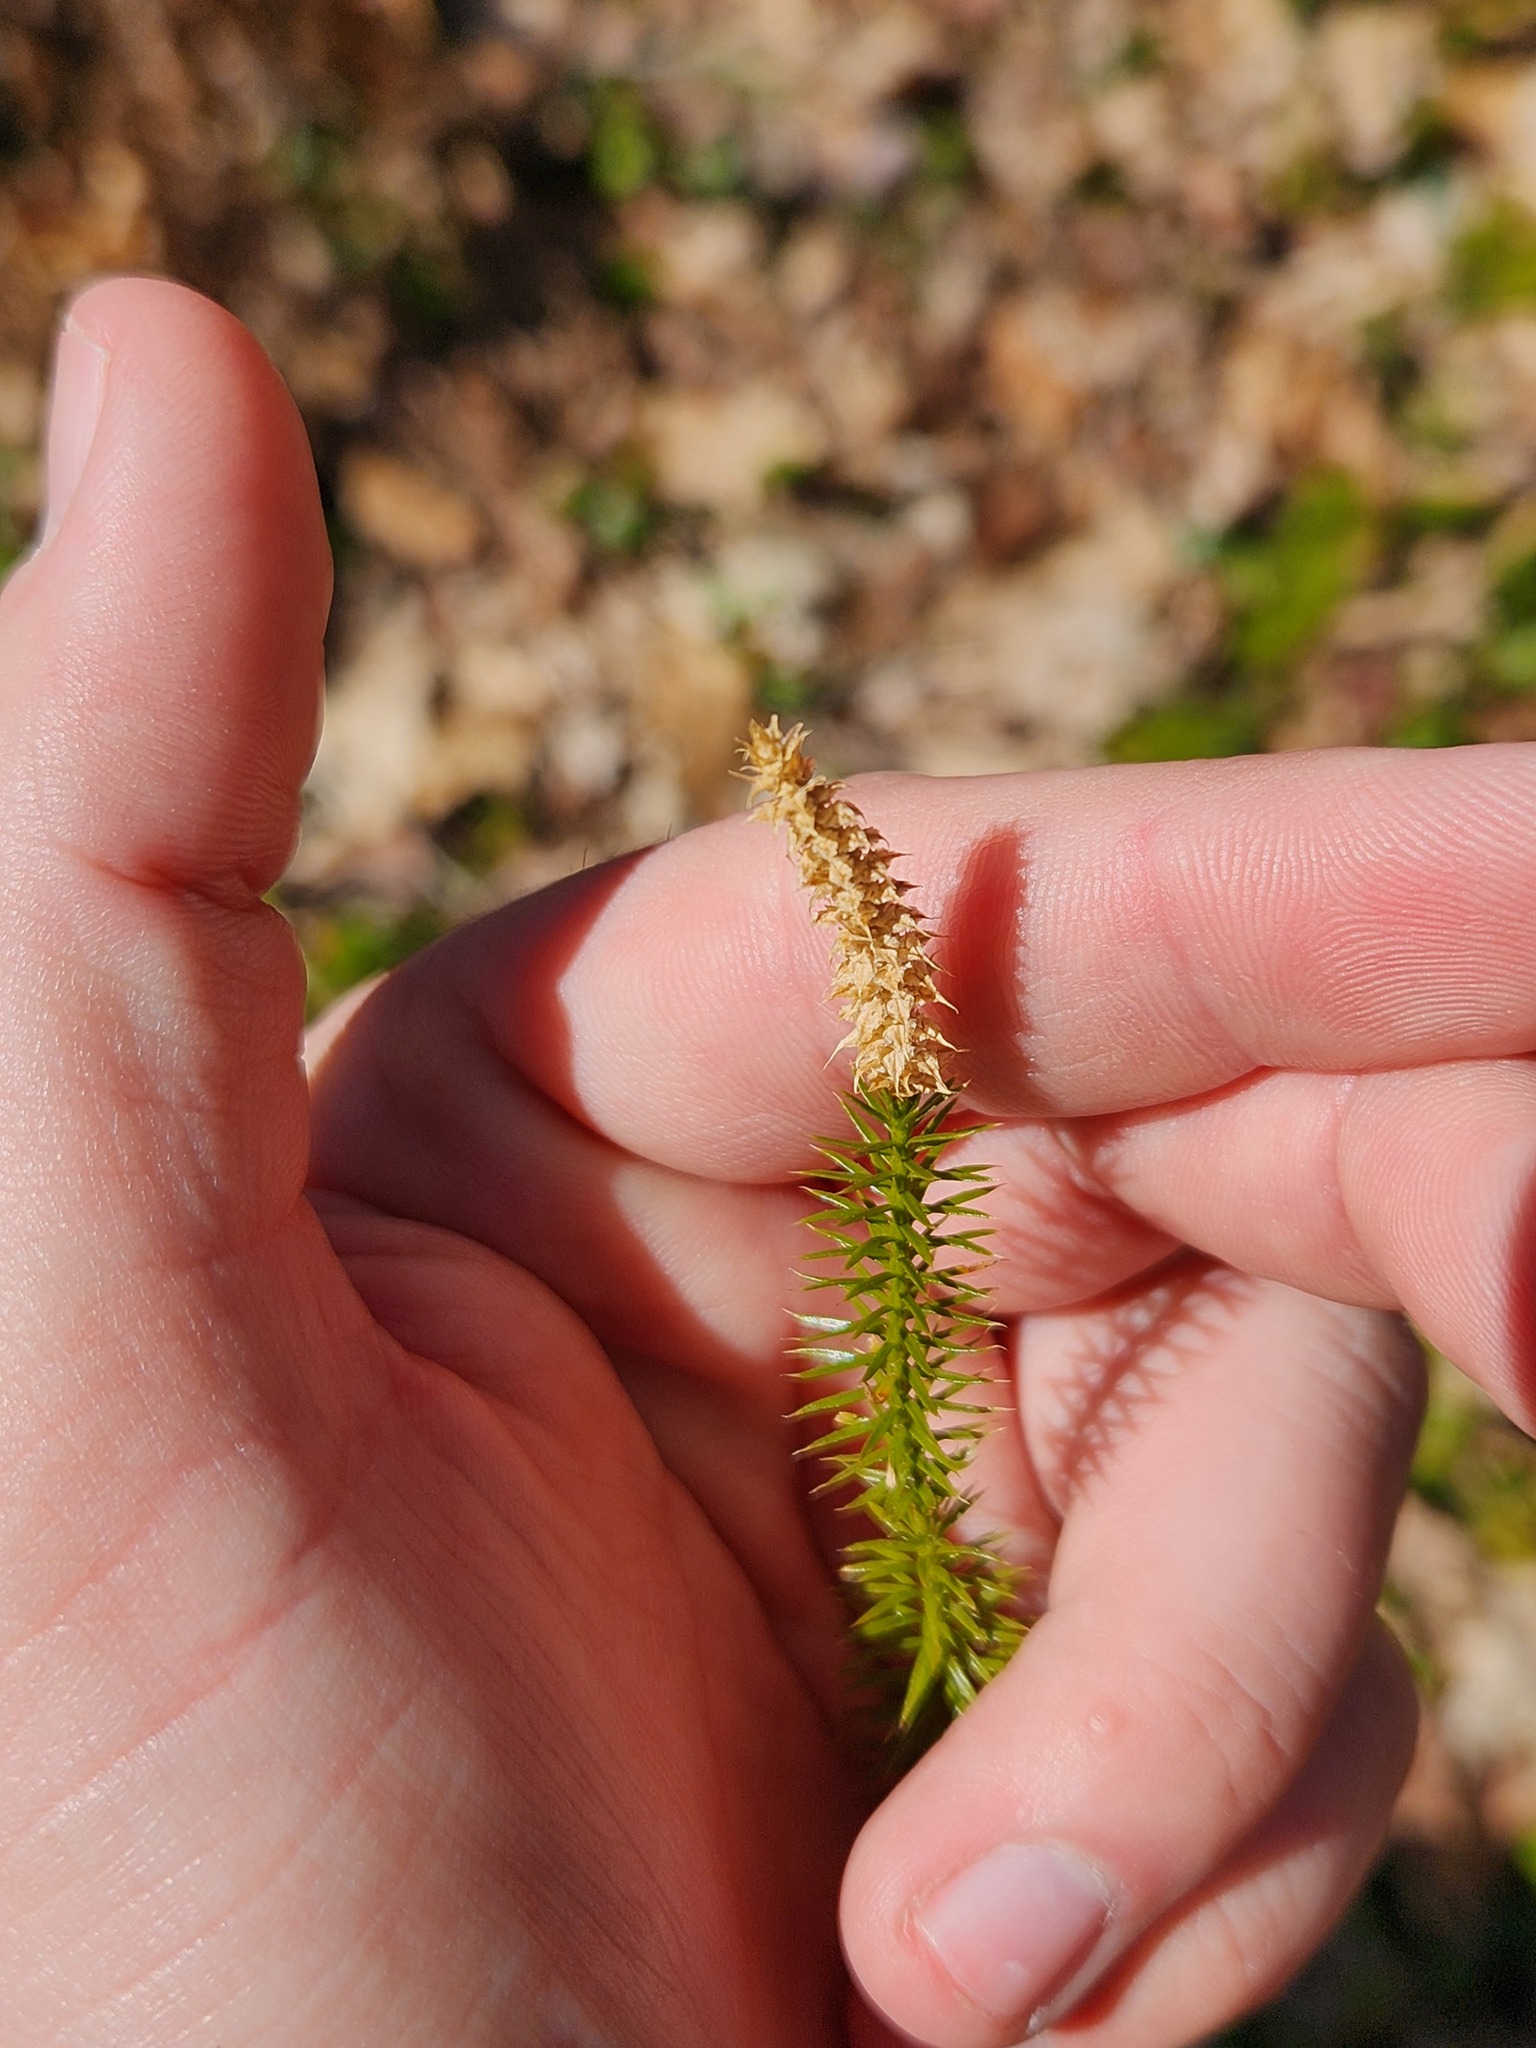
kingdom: Plantae
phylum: Tracheophyta
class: Lycopodiopsida
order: Lycopodiales
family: Lycopodiaceae
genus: Spinulum
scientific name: Spinulum annotinum
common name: Interrupted club-moss
